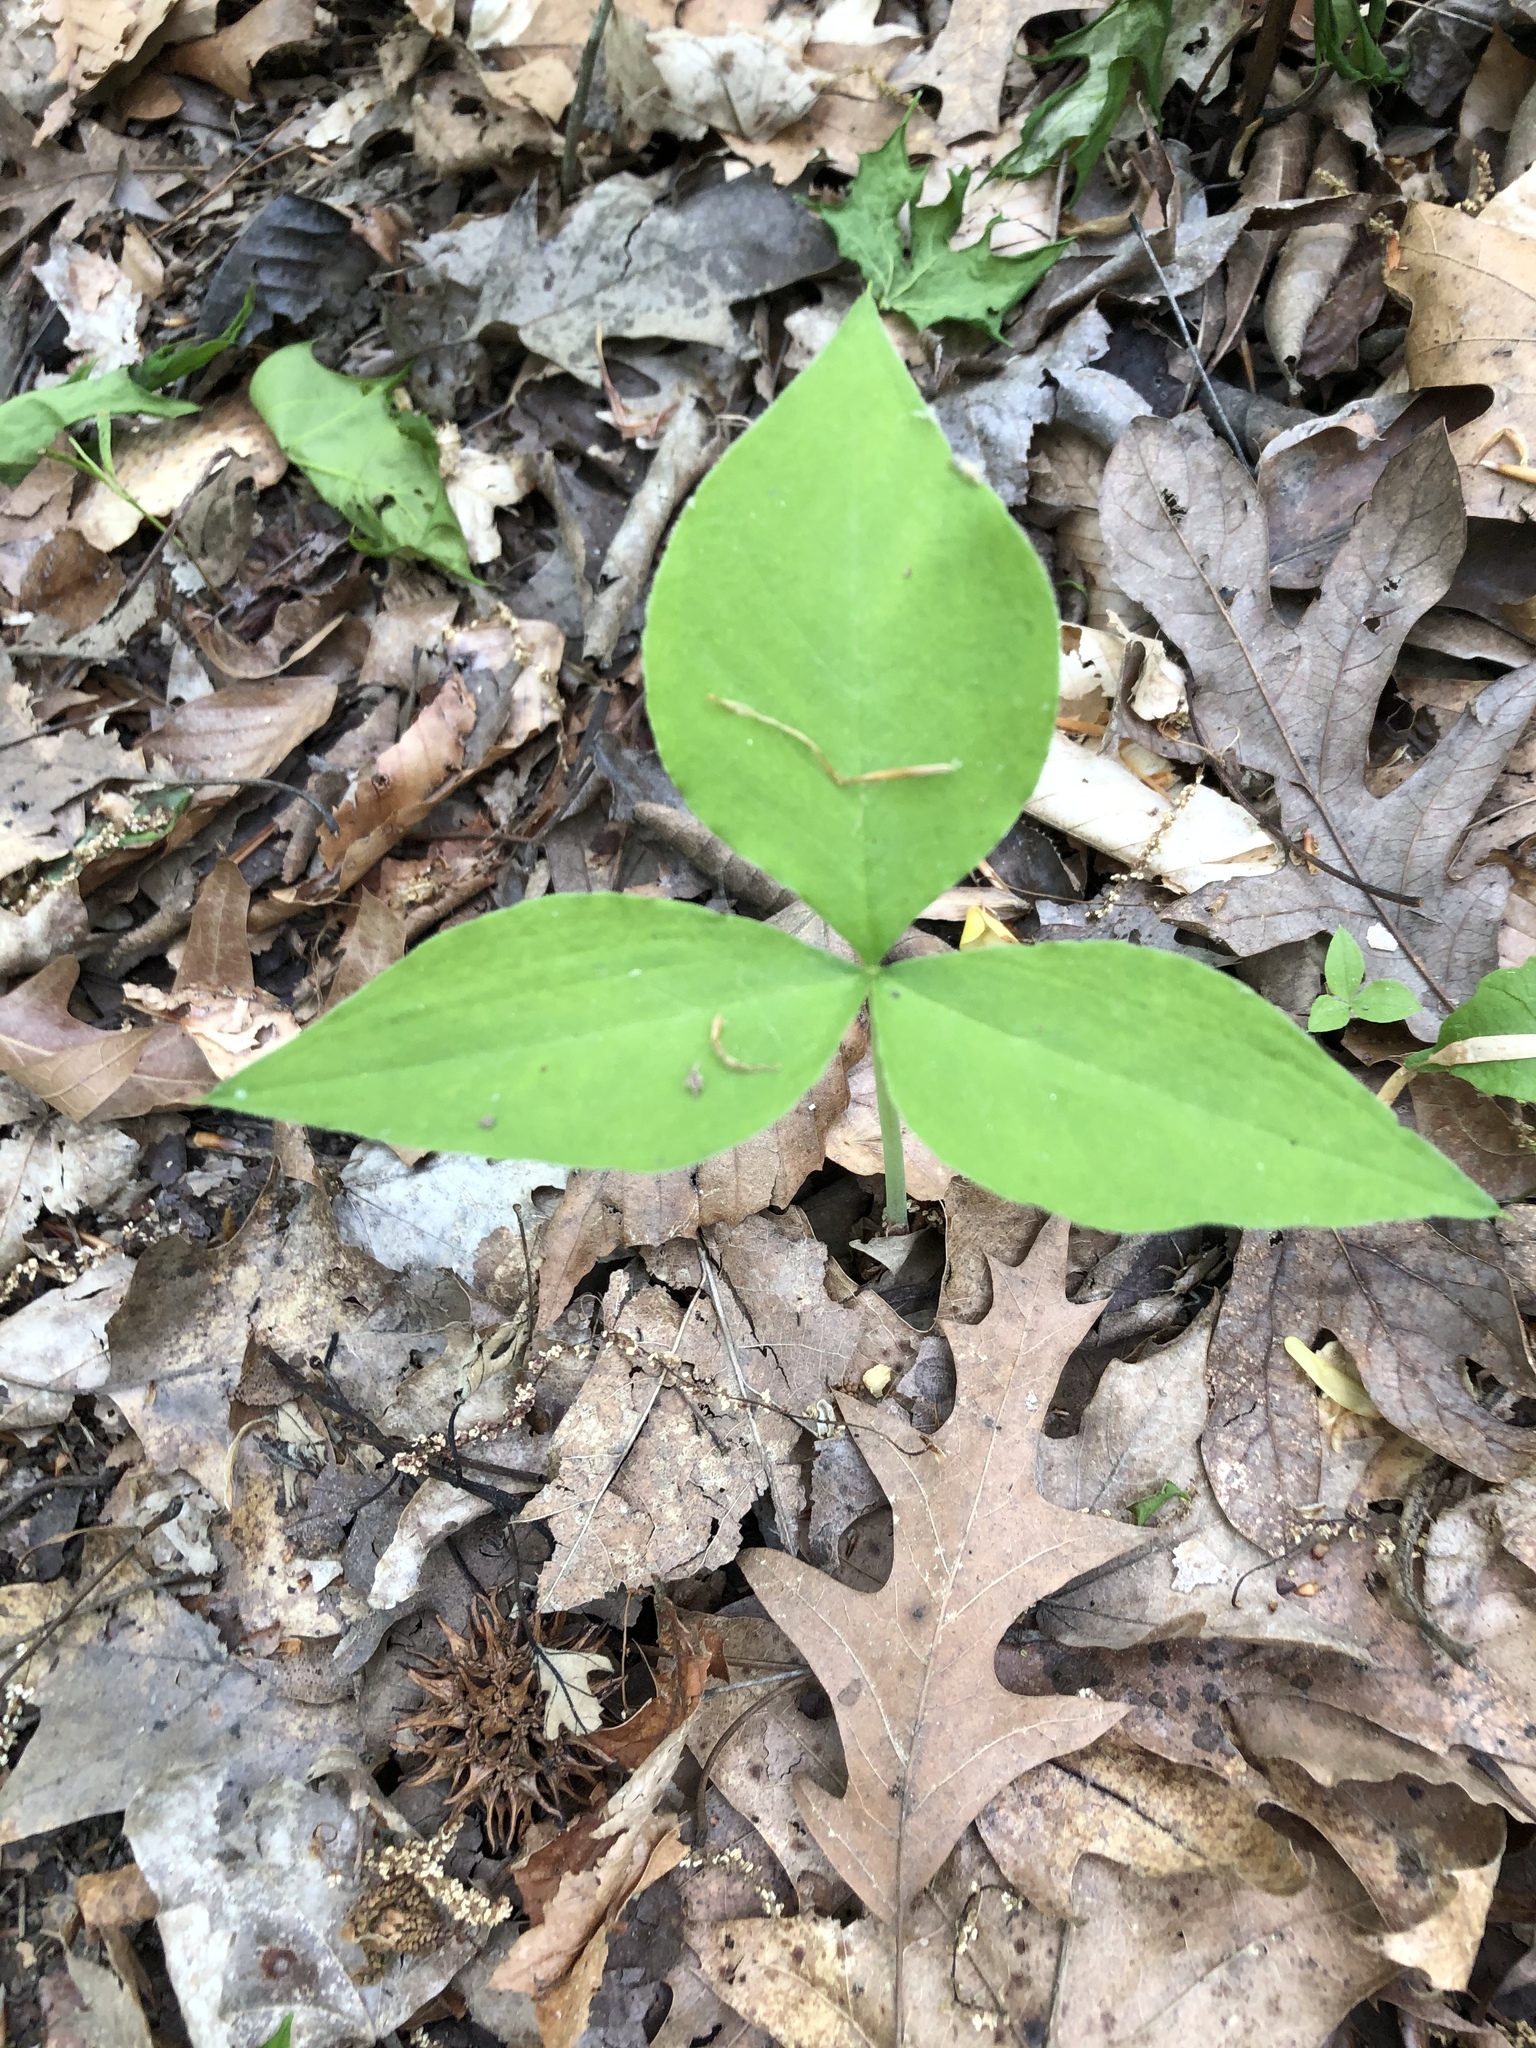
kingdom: Plantae
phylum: Tracheophyta
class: Liliopsida
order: Alismatales
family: Araceae
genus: Arisaema
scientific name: Arisaema triphyllum
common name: Jack-in-the-pulpit
